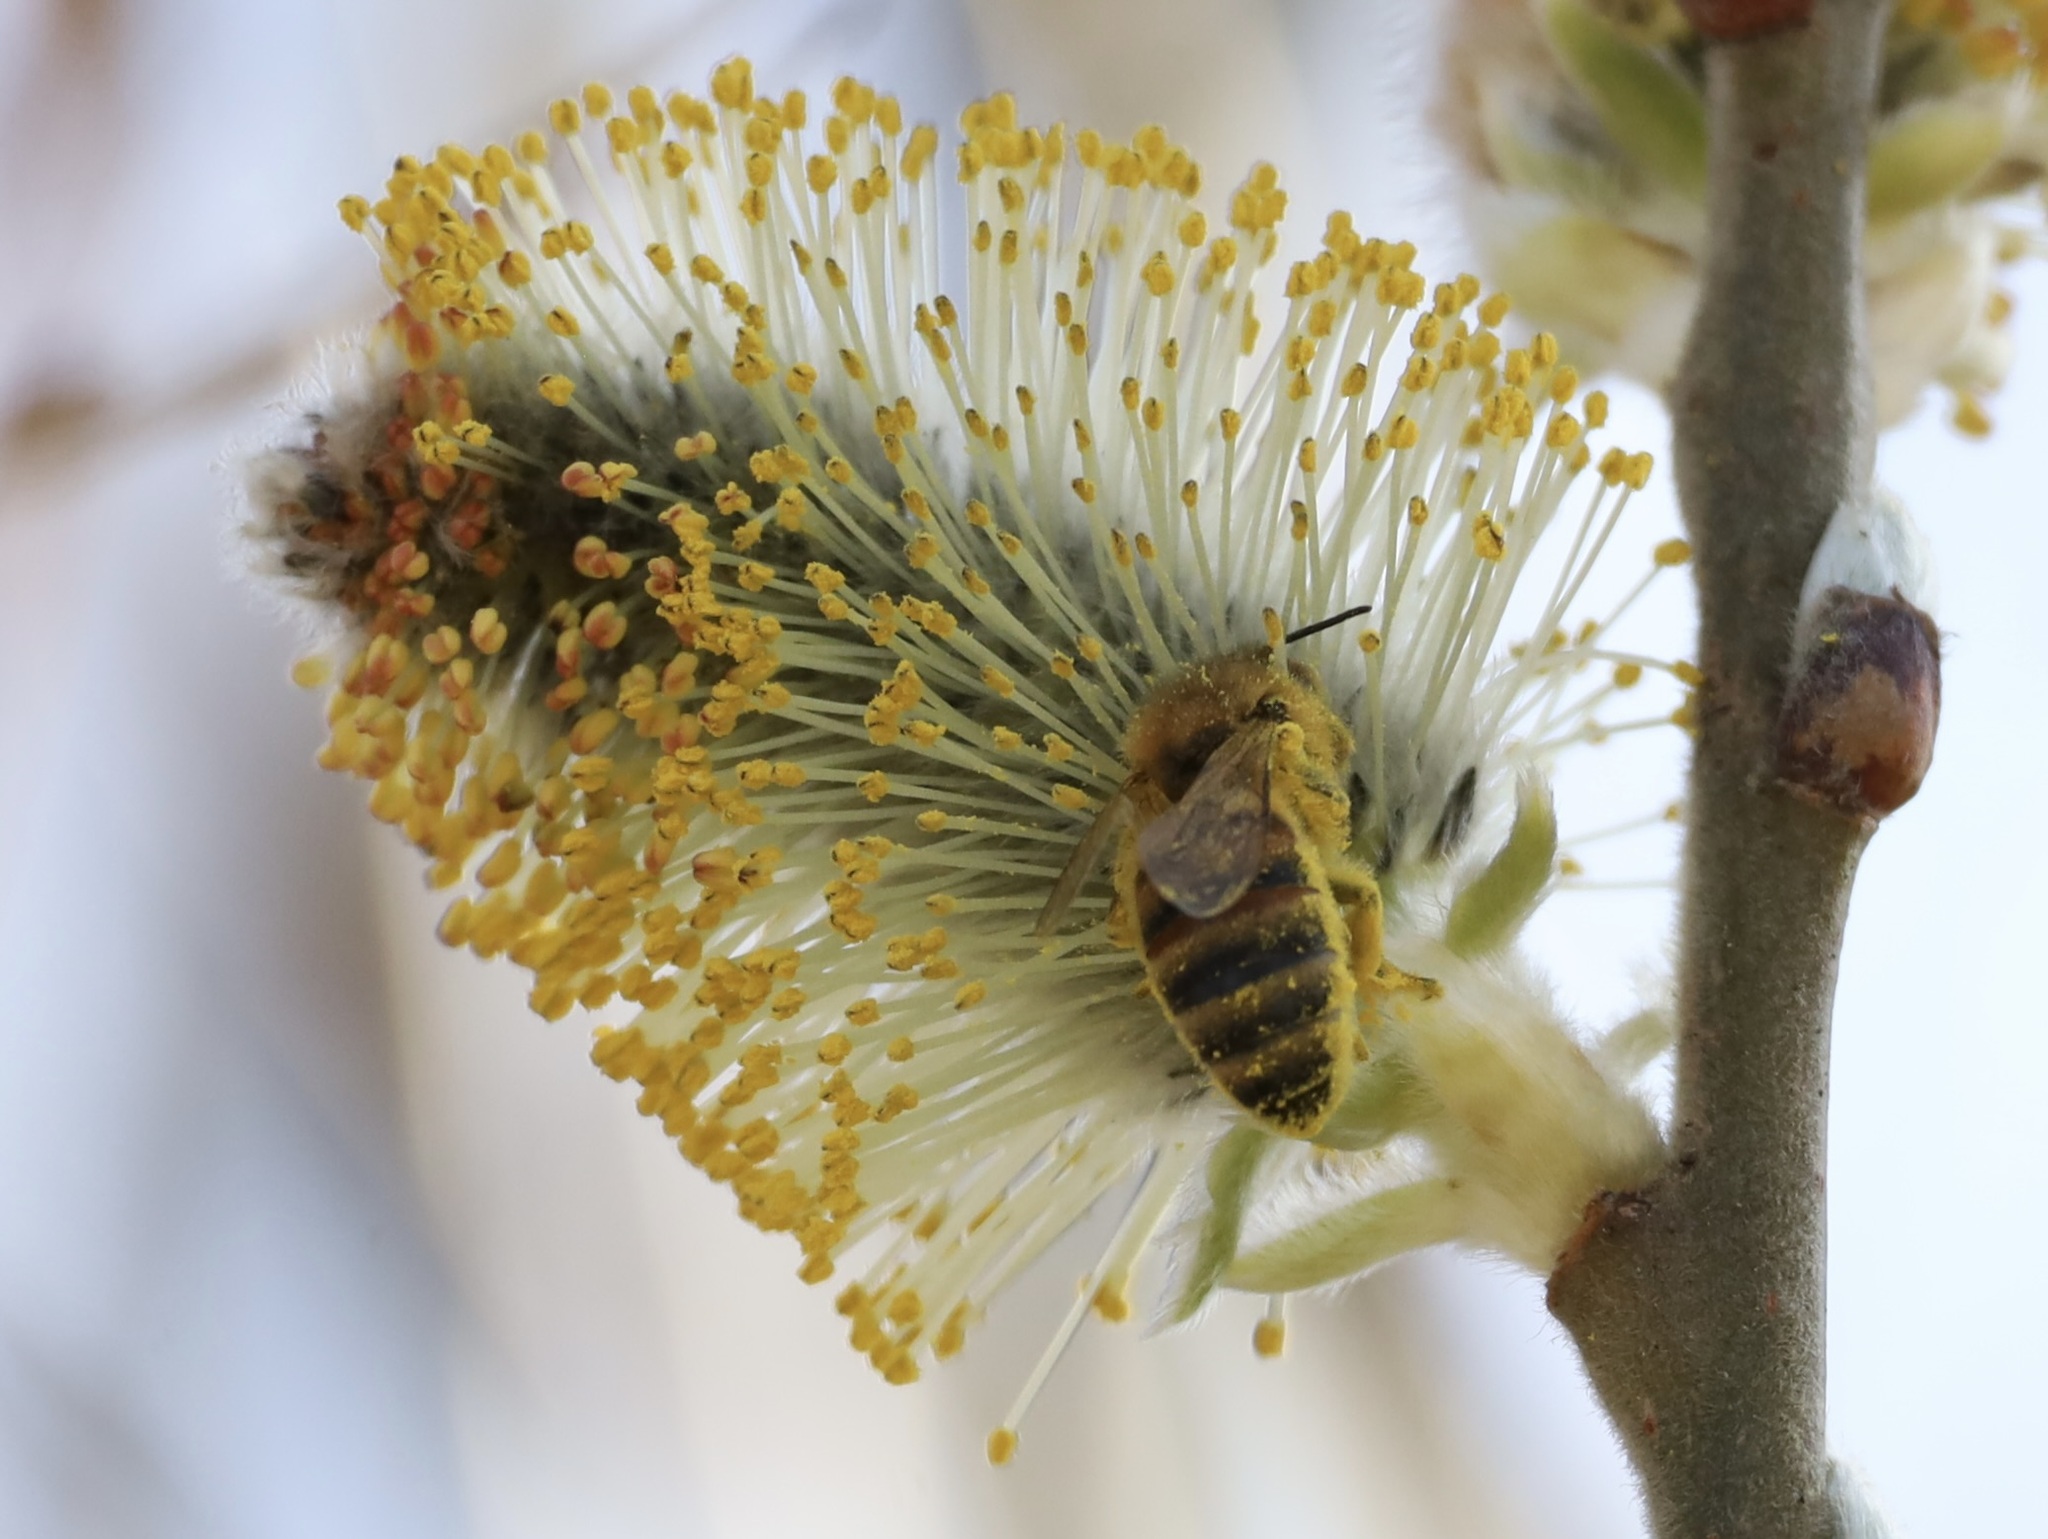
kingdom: Animalia
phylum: Arthropoda
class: Insecta
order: Hymenoptera
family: Apidae
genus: Apis
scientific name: Apis mellifera
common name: Honey bee
